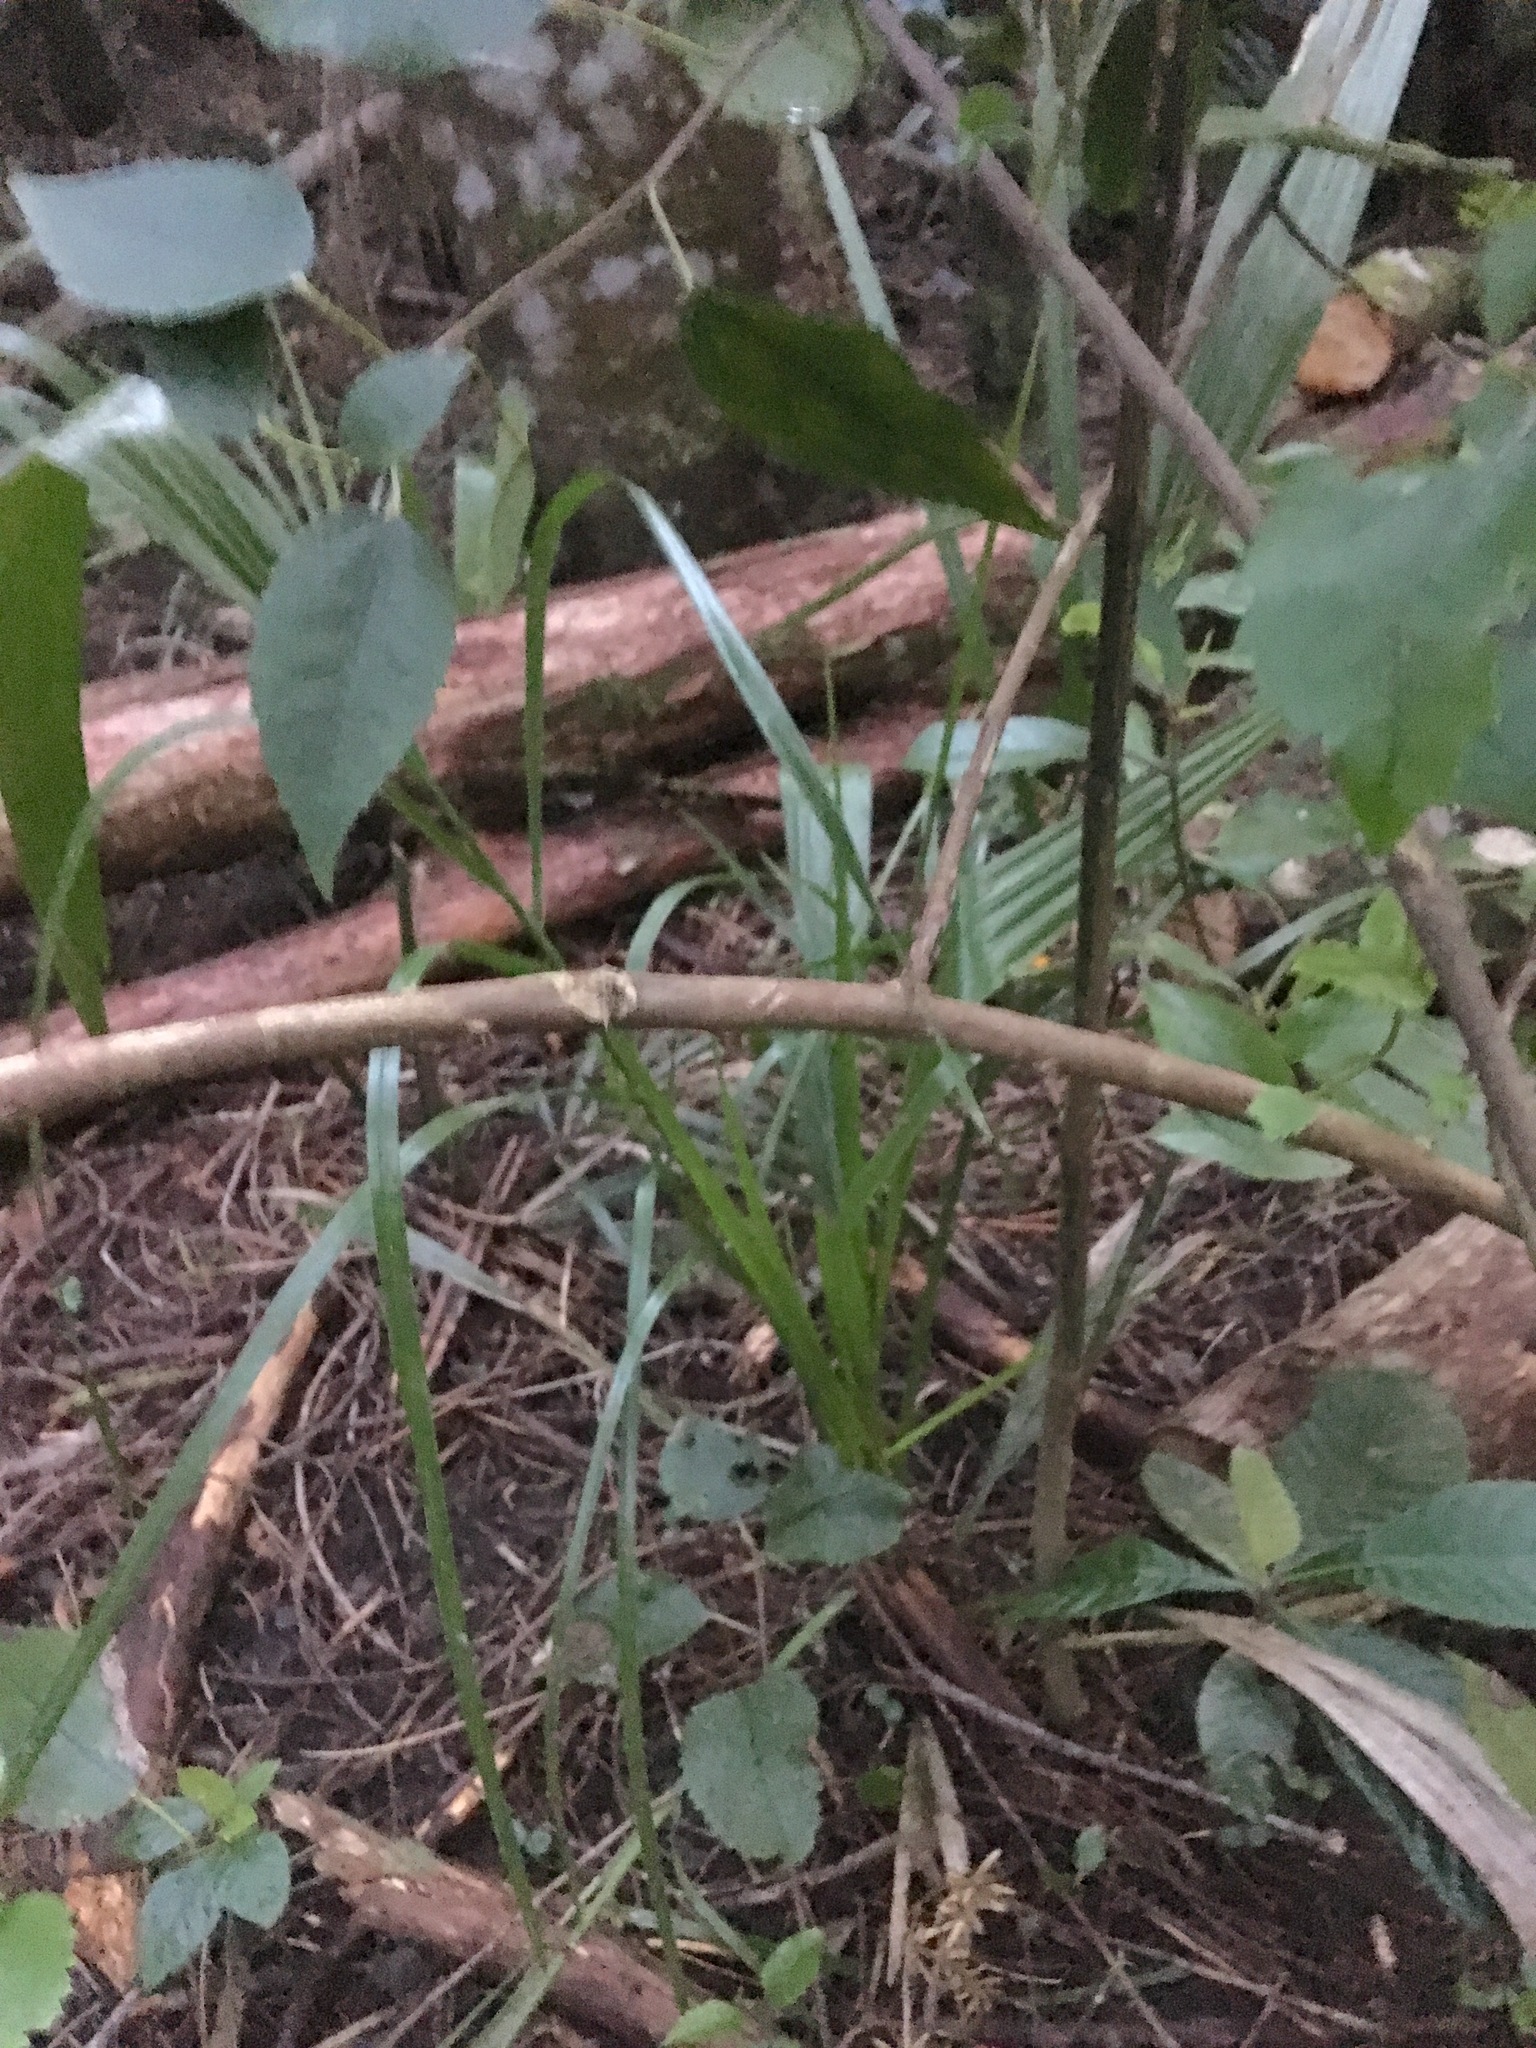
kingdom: Plantae
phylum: Tracheophyta
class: Liliopsida
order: Arecales
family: Arecaceae
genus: Phoenix
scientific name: Phoenix canariensis
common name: Canary island date palm
